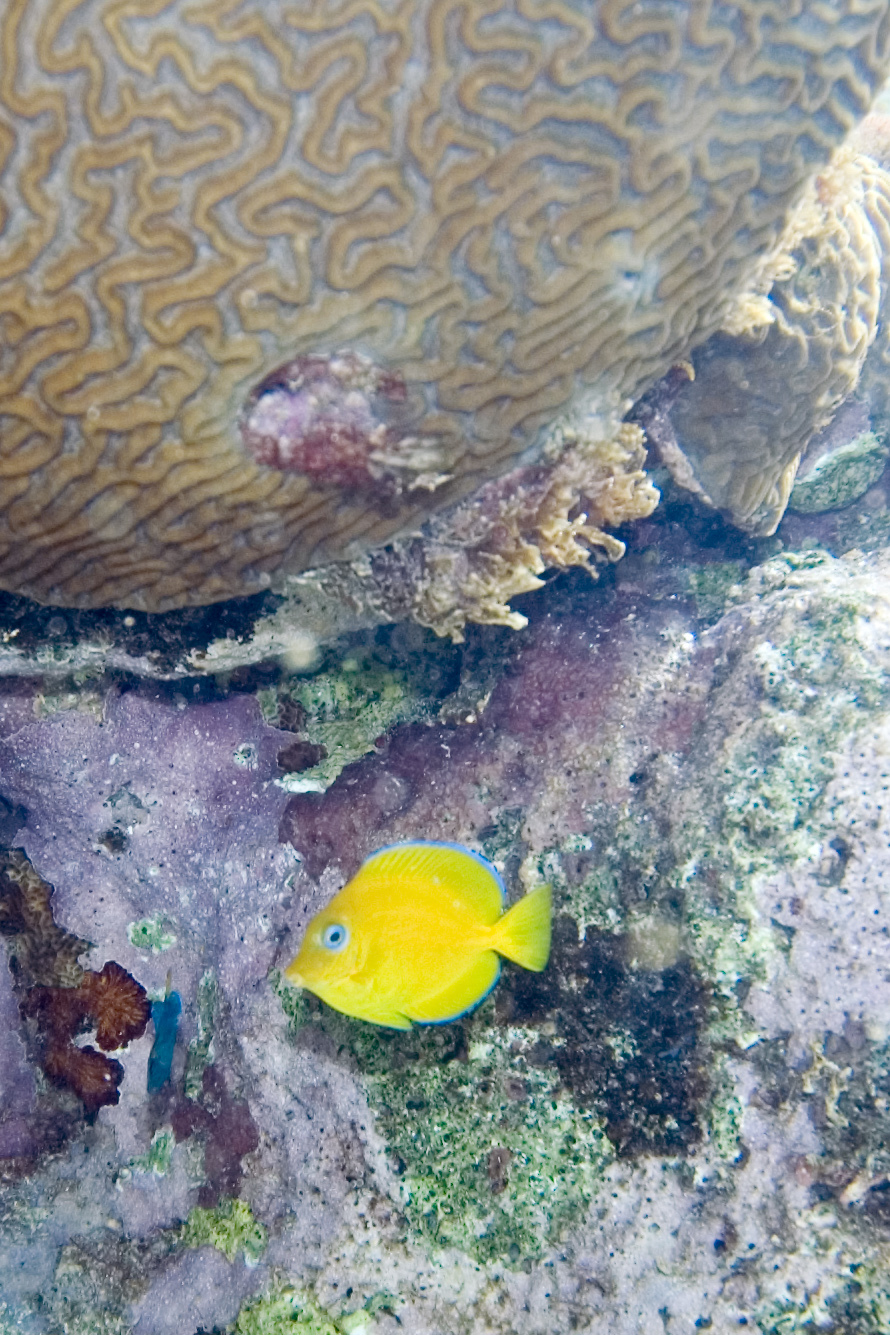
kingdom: Animalia
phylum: Chordata
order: Perciformes
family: Acanthuridae
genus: Acanthurus
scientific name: Acanthurus coeruleus
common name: Blue tang
